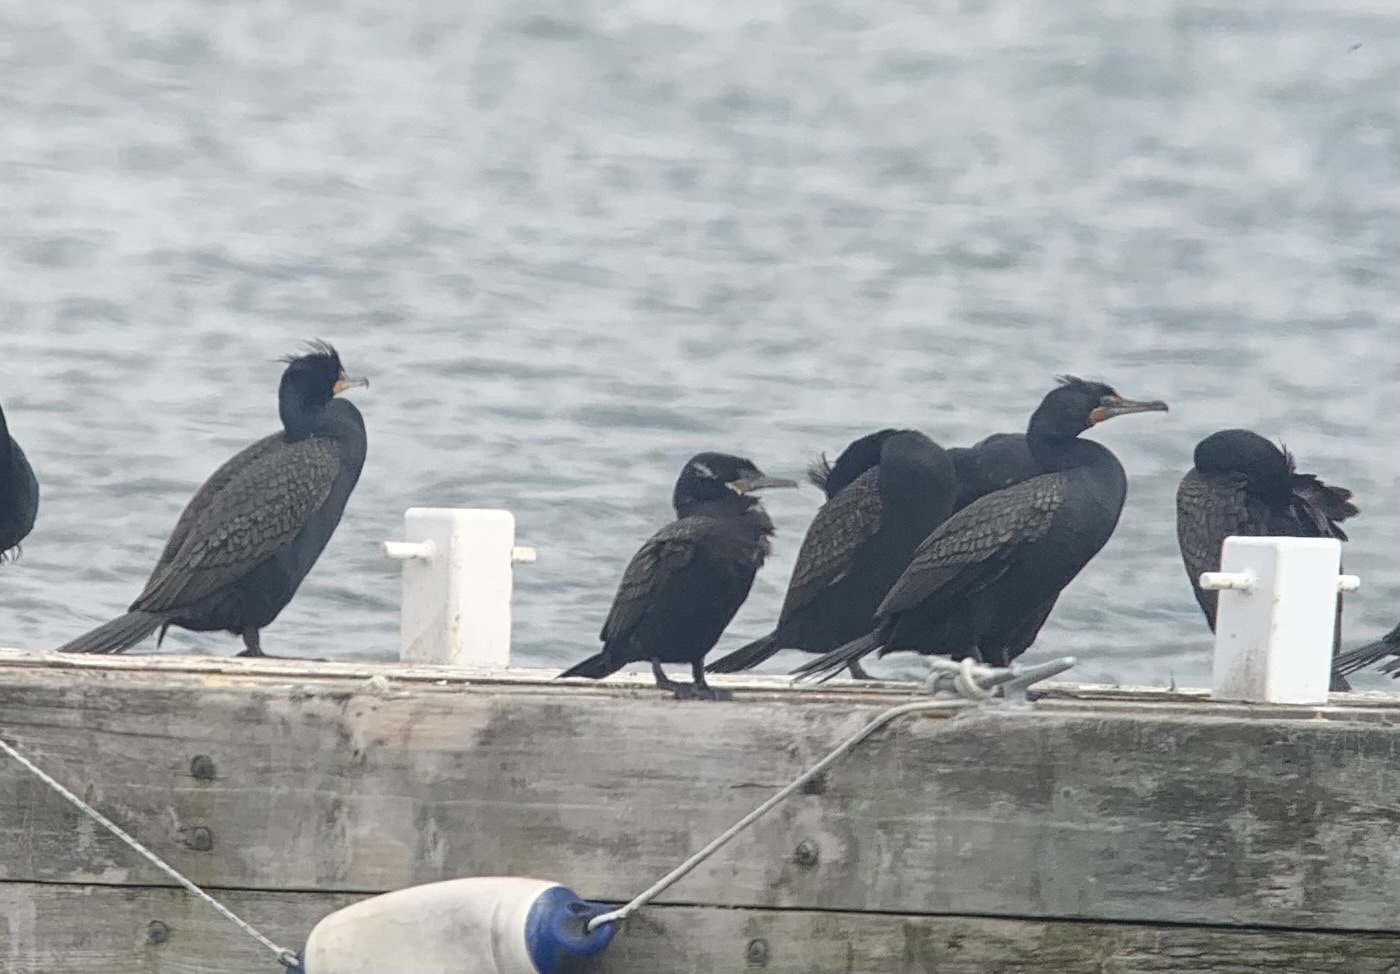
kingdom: Animalia
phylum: Chordata
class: Aves
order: Suliformes
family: Phalacrocoracidae
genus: Phalacrocorax
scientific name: Phalacrocorax brasilianus
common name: Neotropic cormorant
